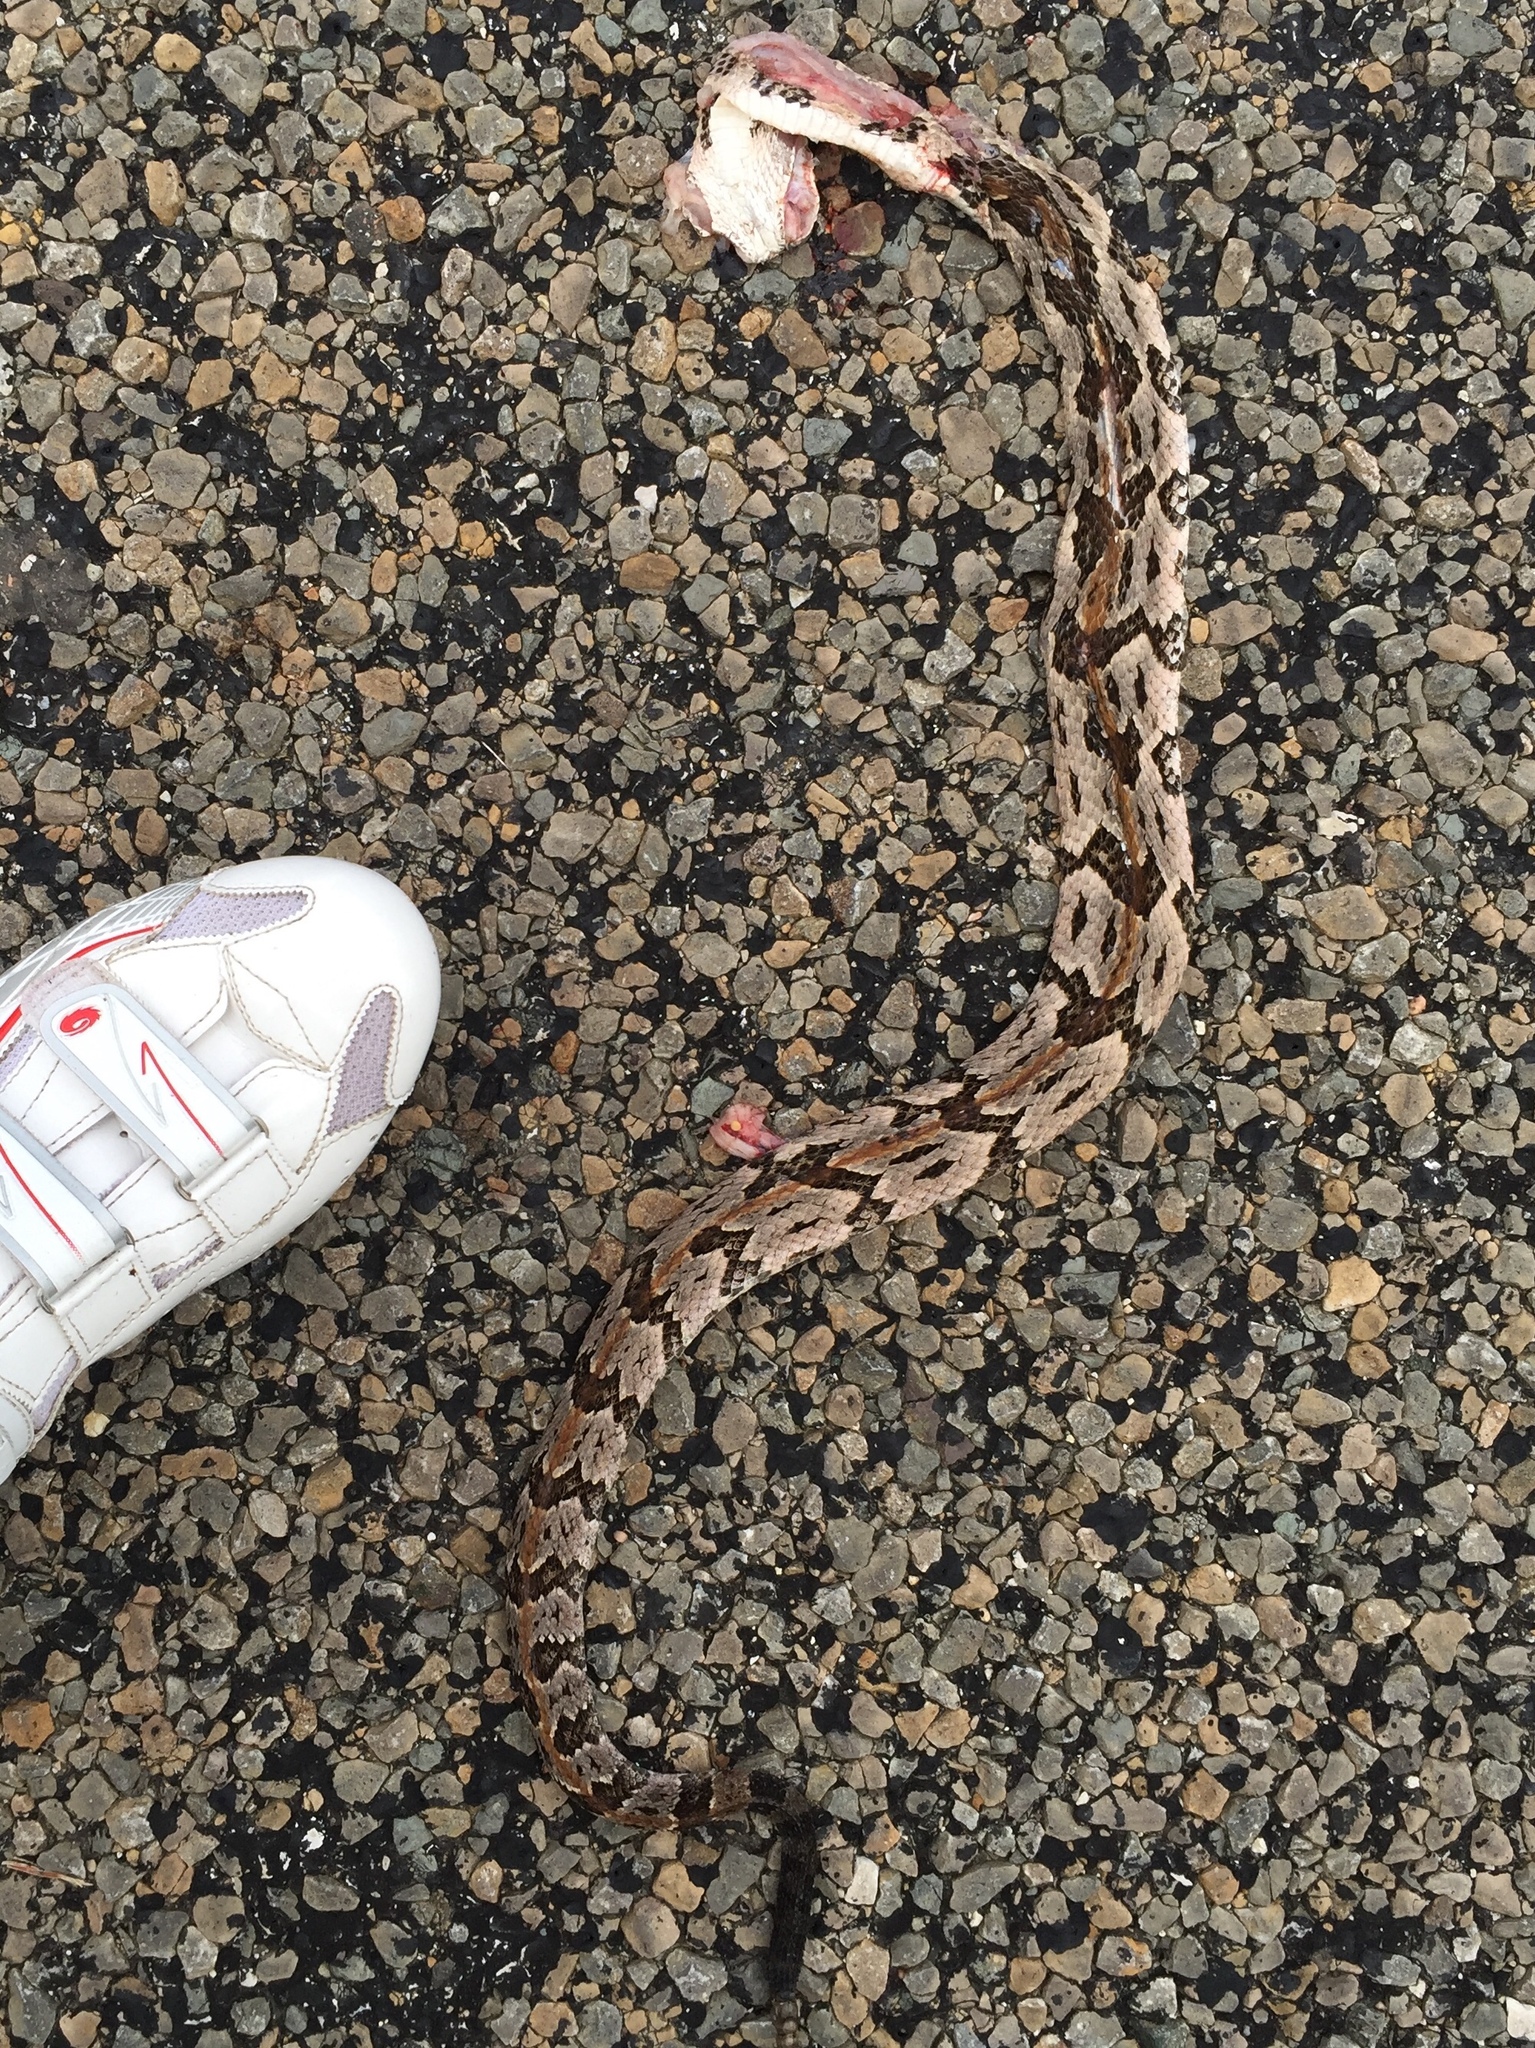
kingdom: Animalia
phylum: Chordata
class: Squamata
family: Viperidae
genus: Crotalus
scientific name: Crotalus horridus
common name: Timber rattlesnake
